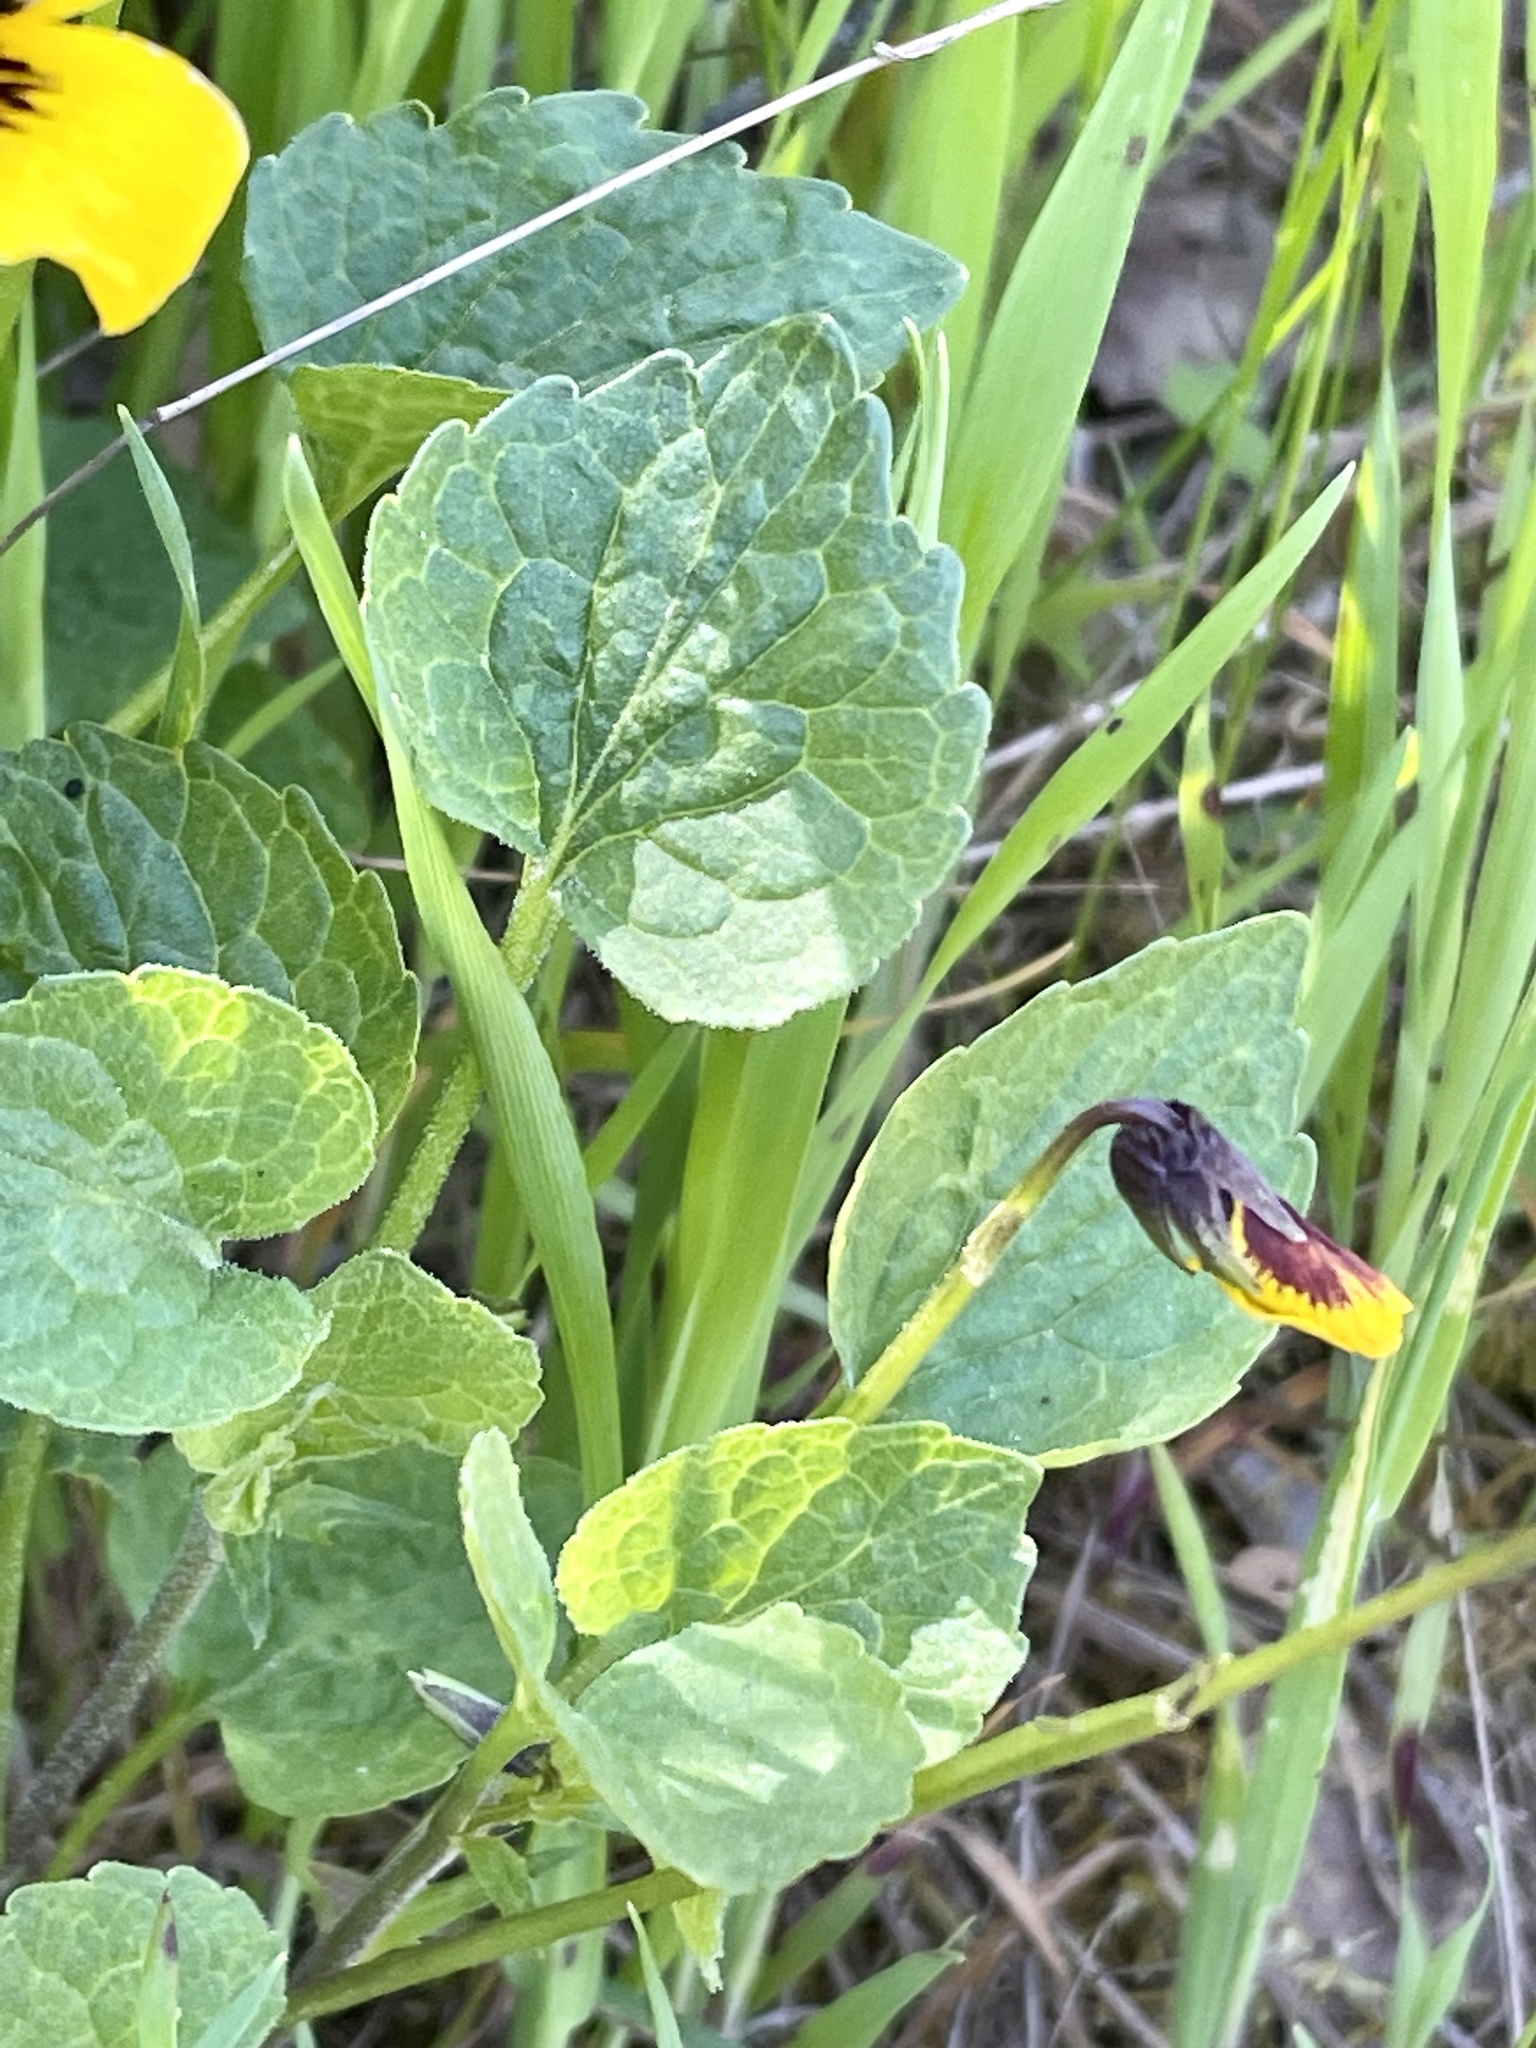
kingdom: Plantae
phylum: Tracheophyta
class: Magnoliopsida
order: Malpighiales
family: Violaceae
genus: Viola
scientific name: Viola pedunculata
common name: California golden violet
